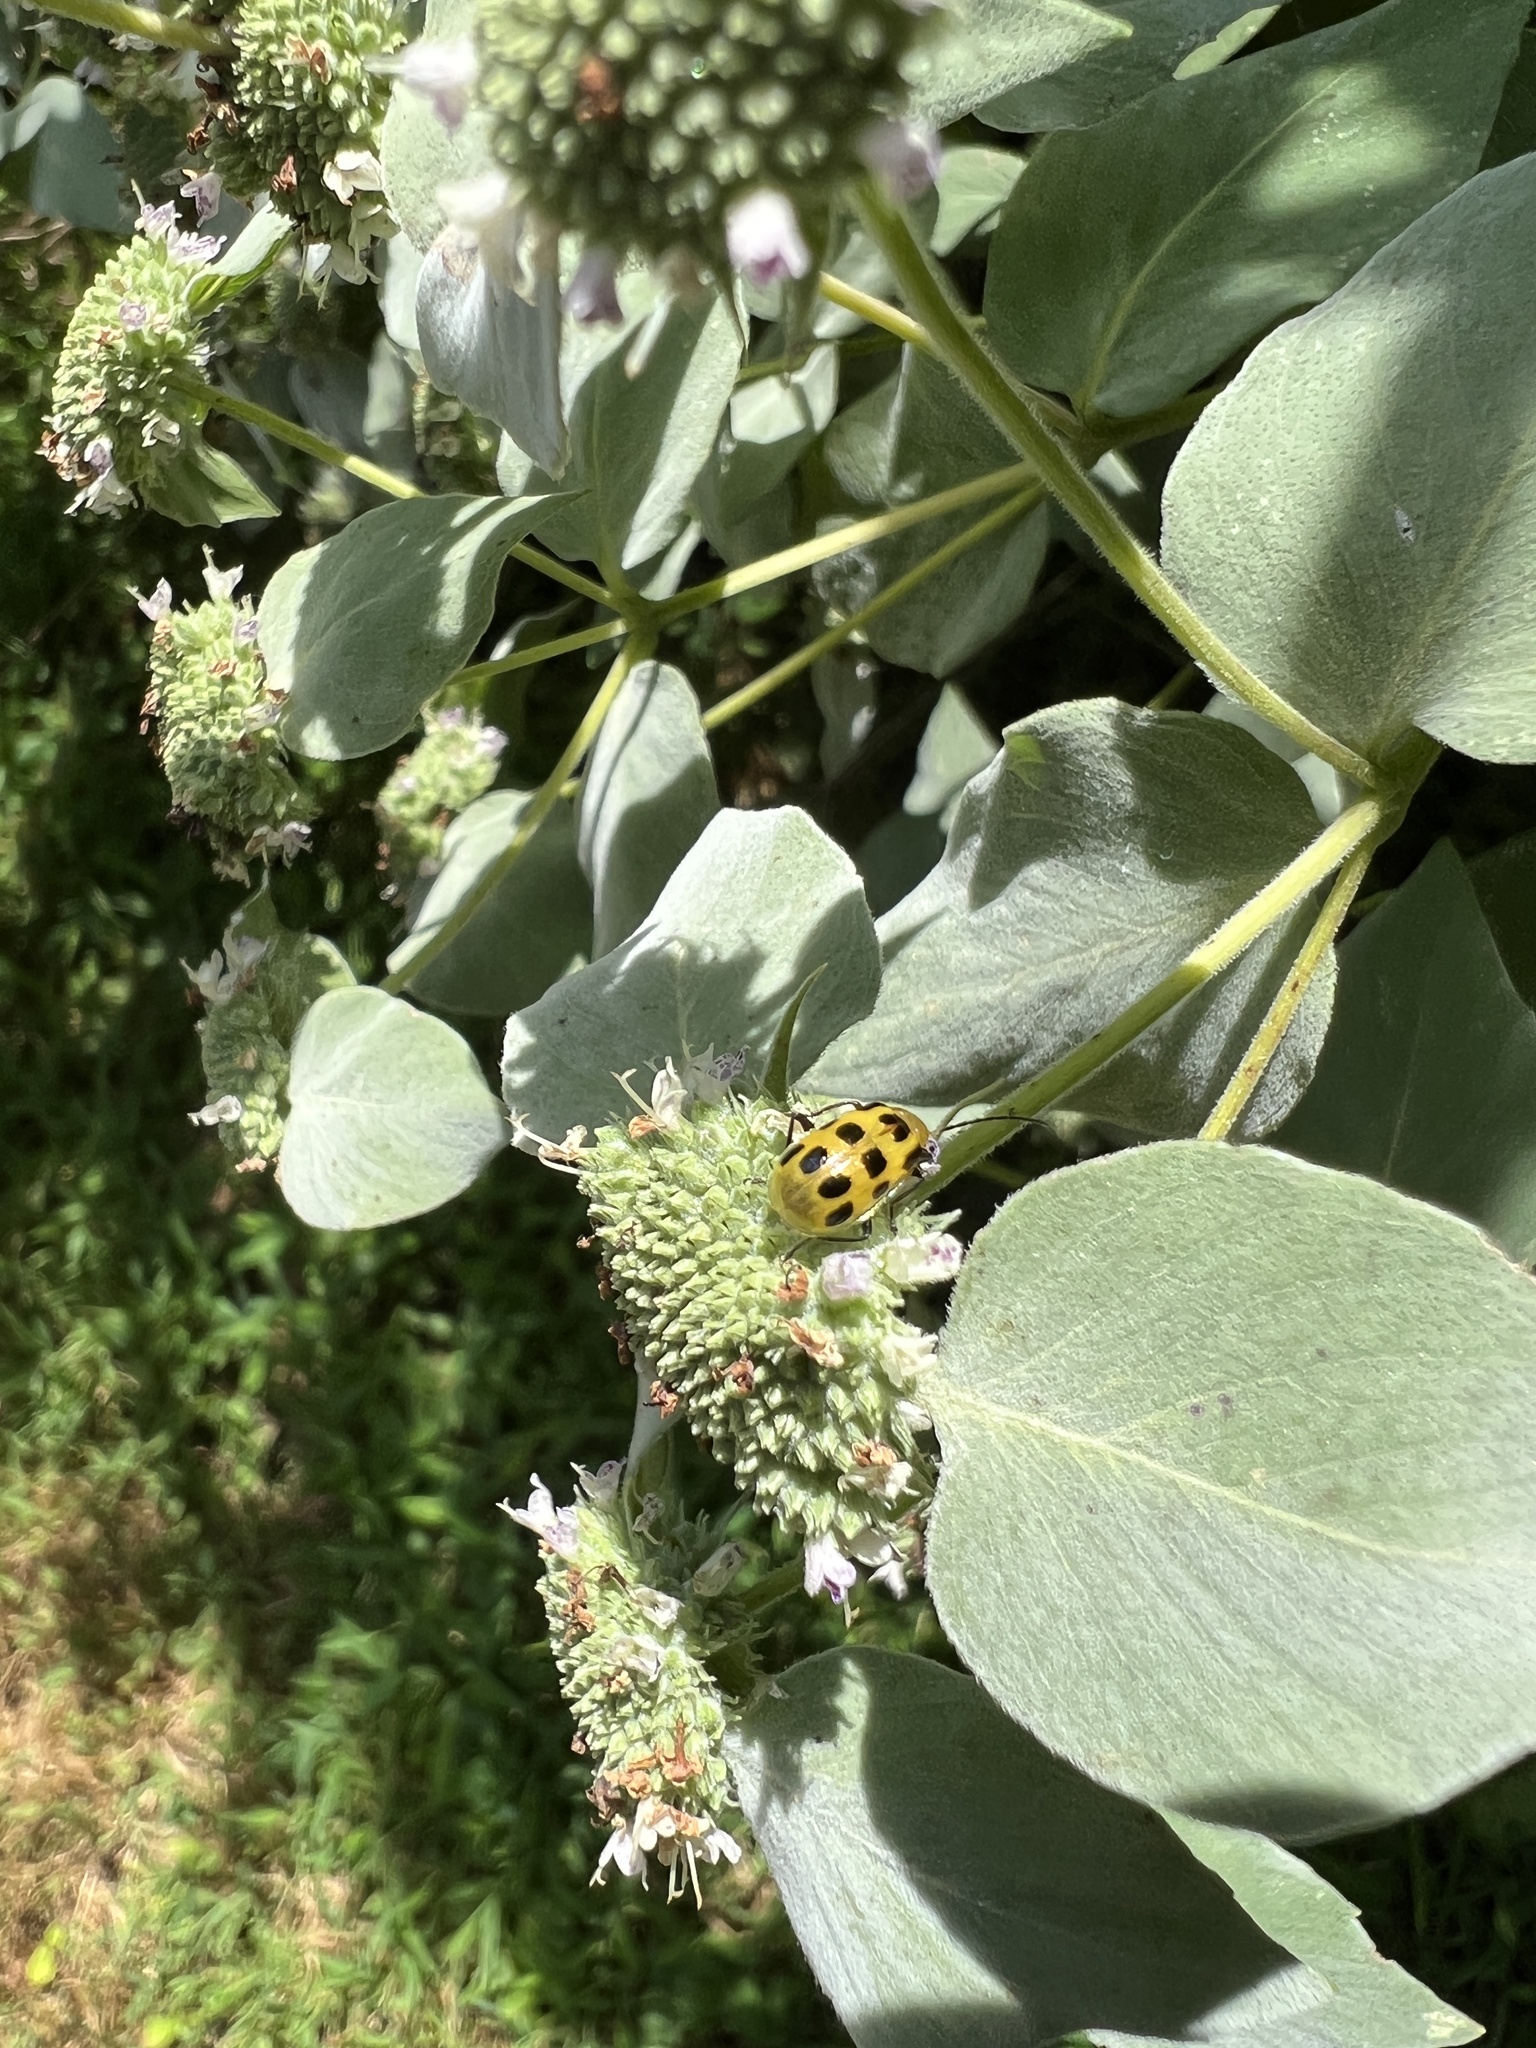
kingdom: Animalia
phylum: Arthropoda
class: Insecta
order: Coleoptera
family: Chrysomelidae
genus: Diabrotica
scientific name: Diabrotica undecimpunctata
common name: Spotted cucumber beetle
